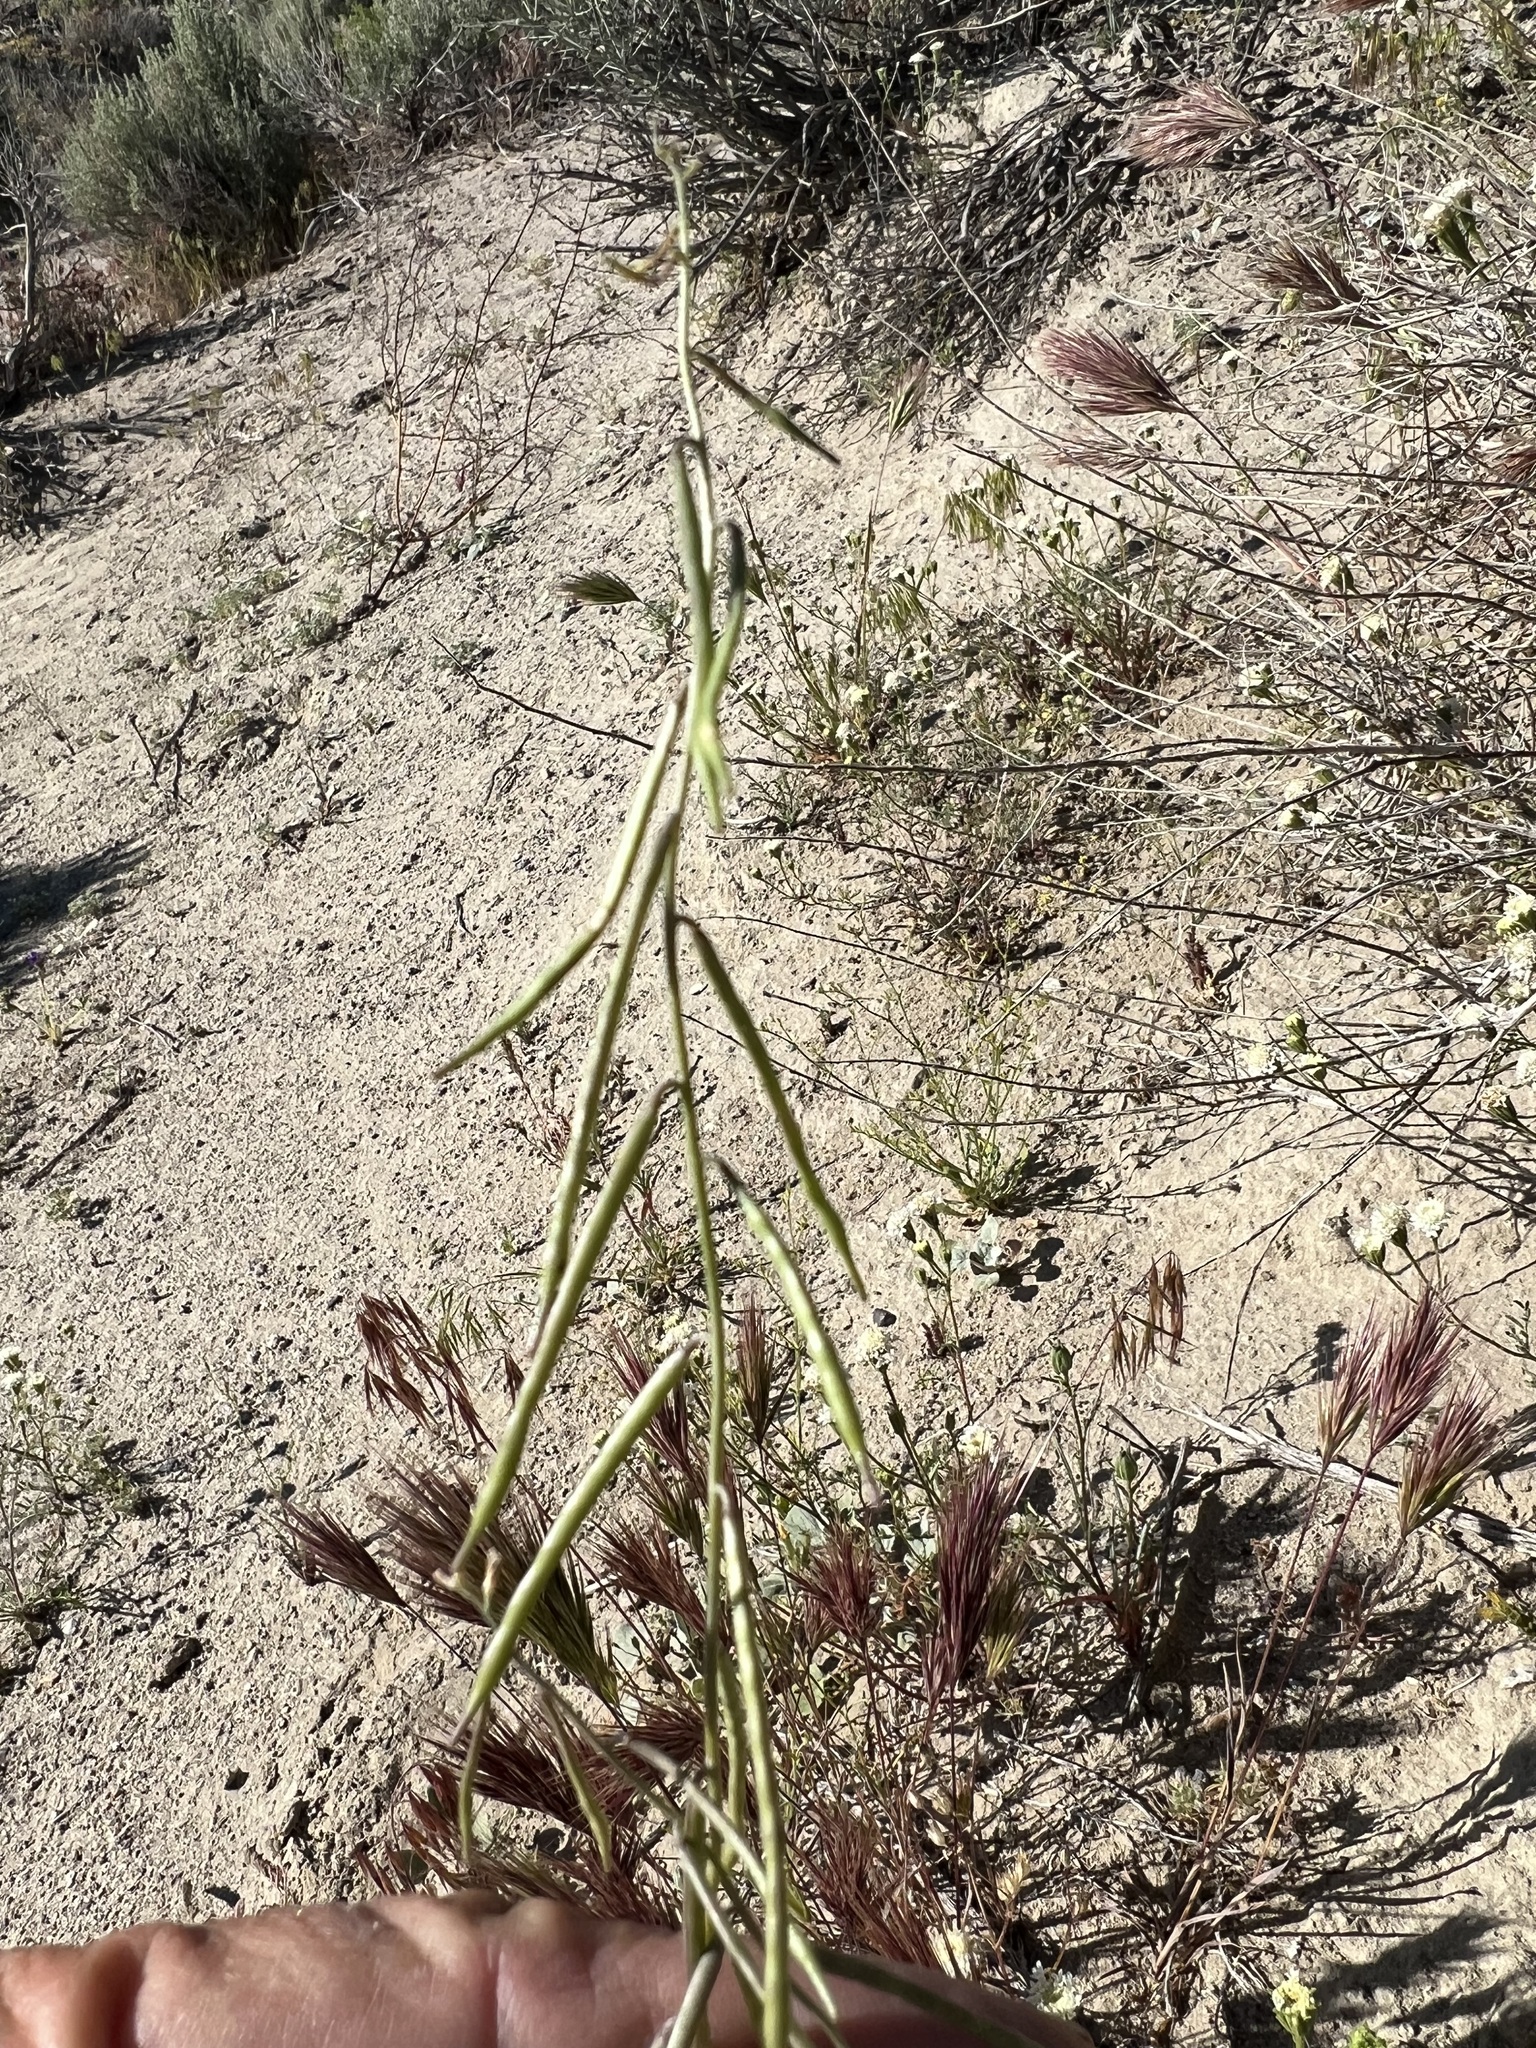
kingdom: Plantae
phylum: Tracheophyta
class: Magnoliopsida
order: Brassicales
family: Brassicaceae
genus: Streptanthus
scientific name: Streptanthus longirostris
